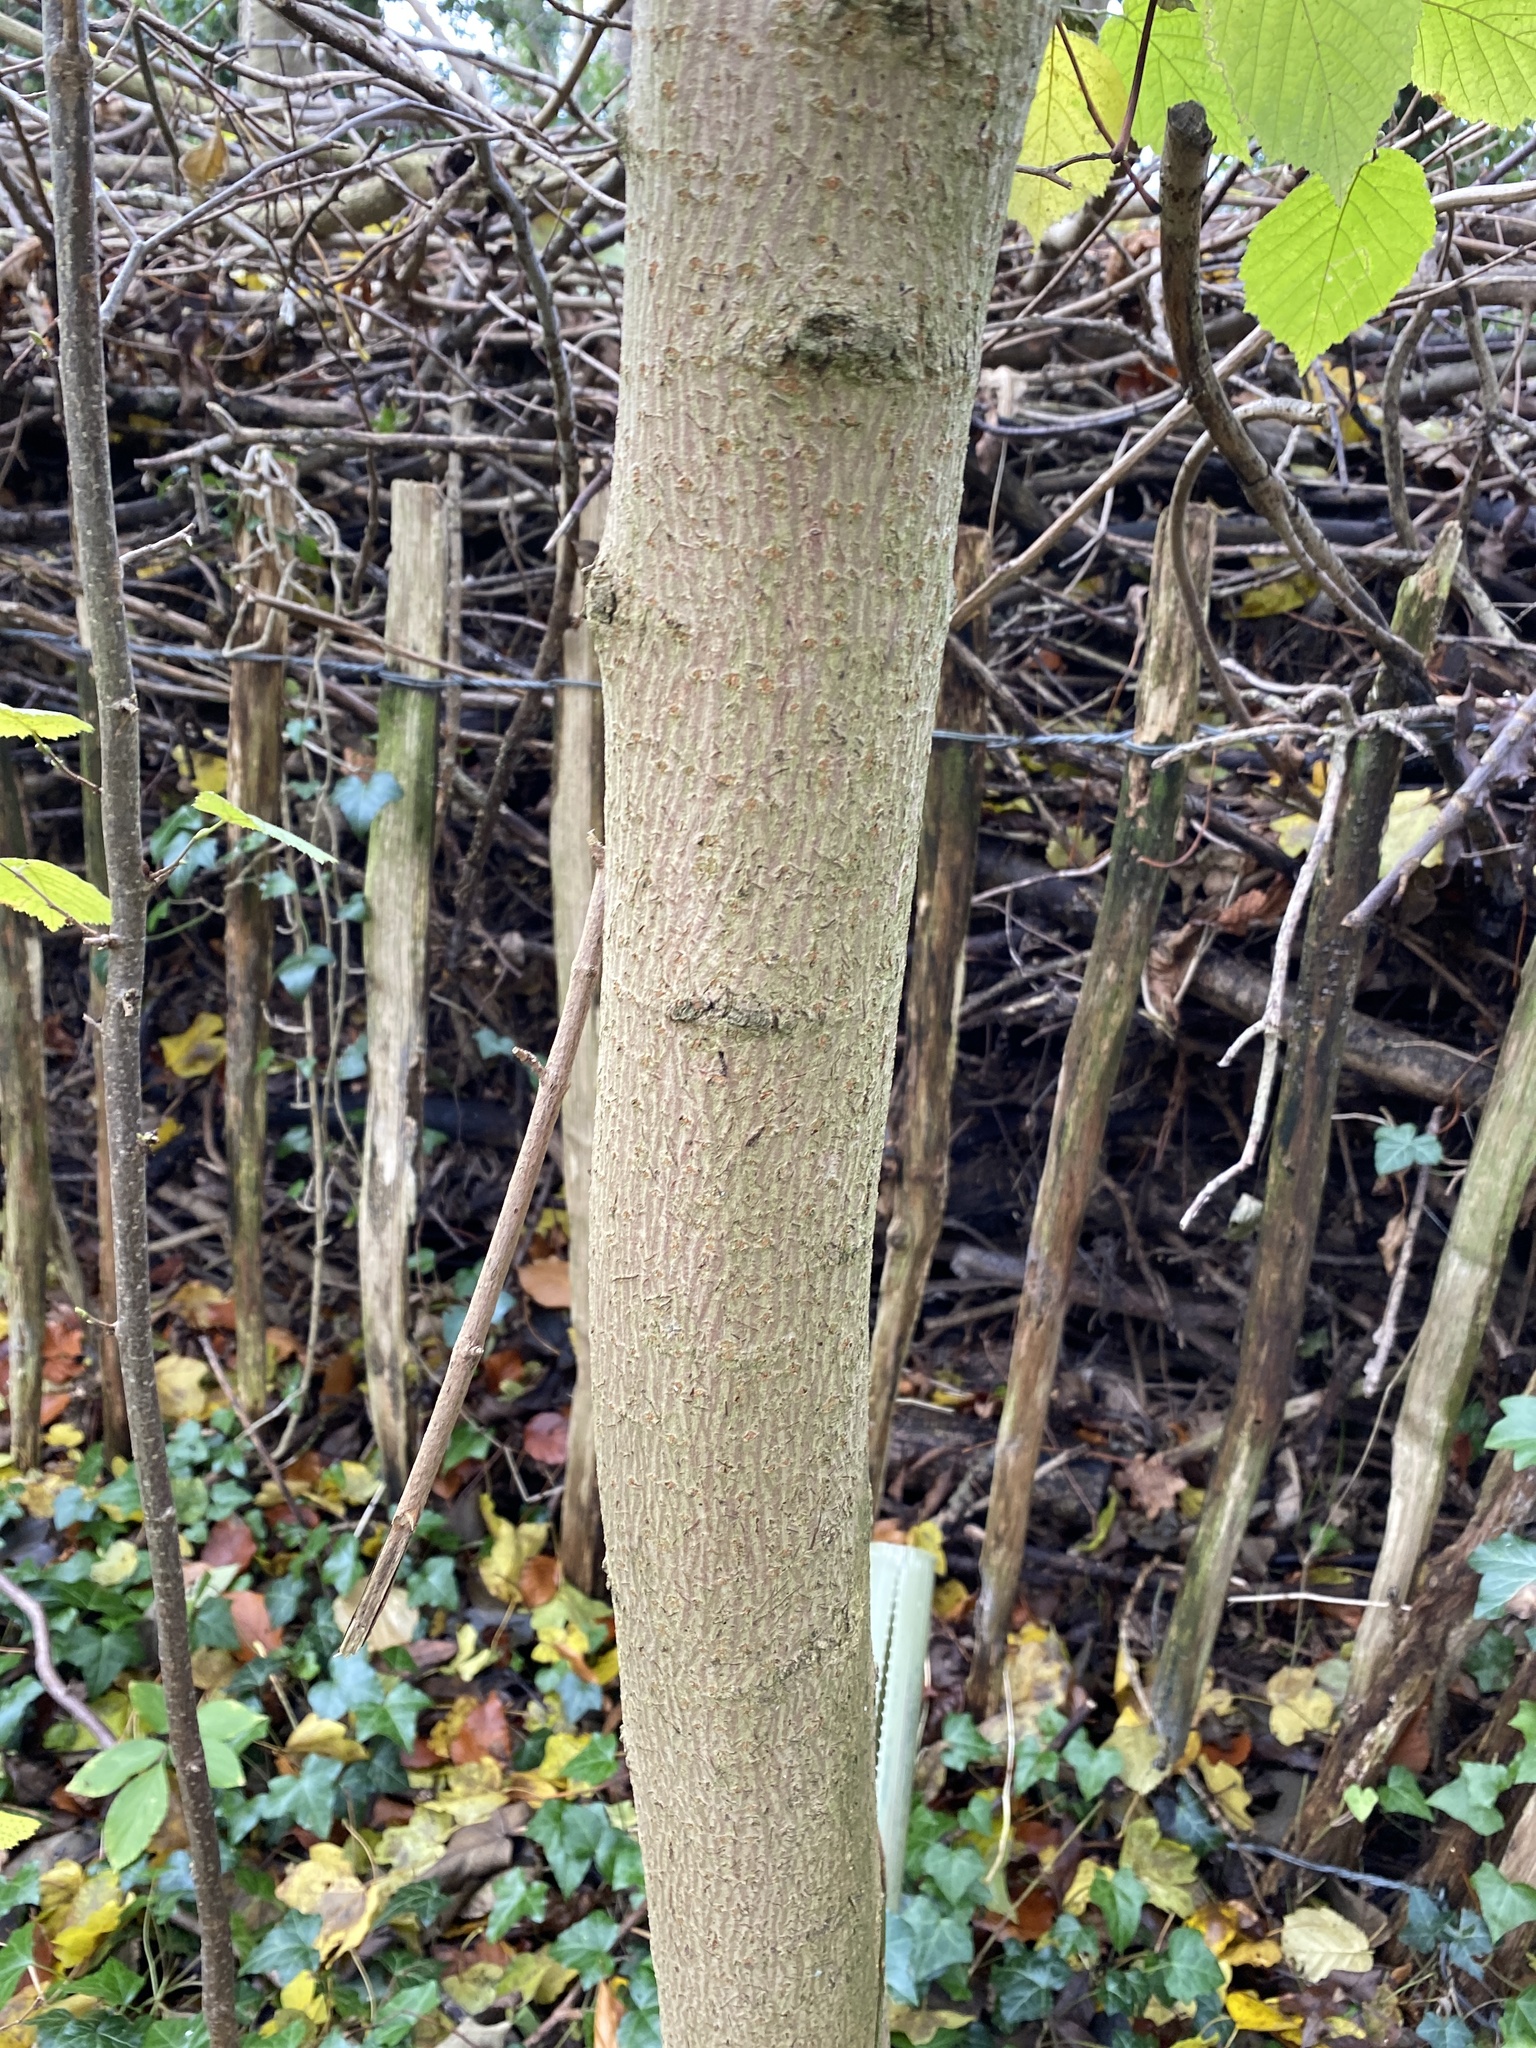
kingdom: Plantae
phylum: Tracheophyta
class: Magnoliopsida
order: Sapindales
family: Sapindaceae
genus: Acer
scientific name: Acer campestre
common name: Field maple
